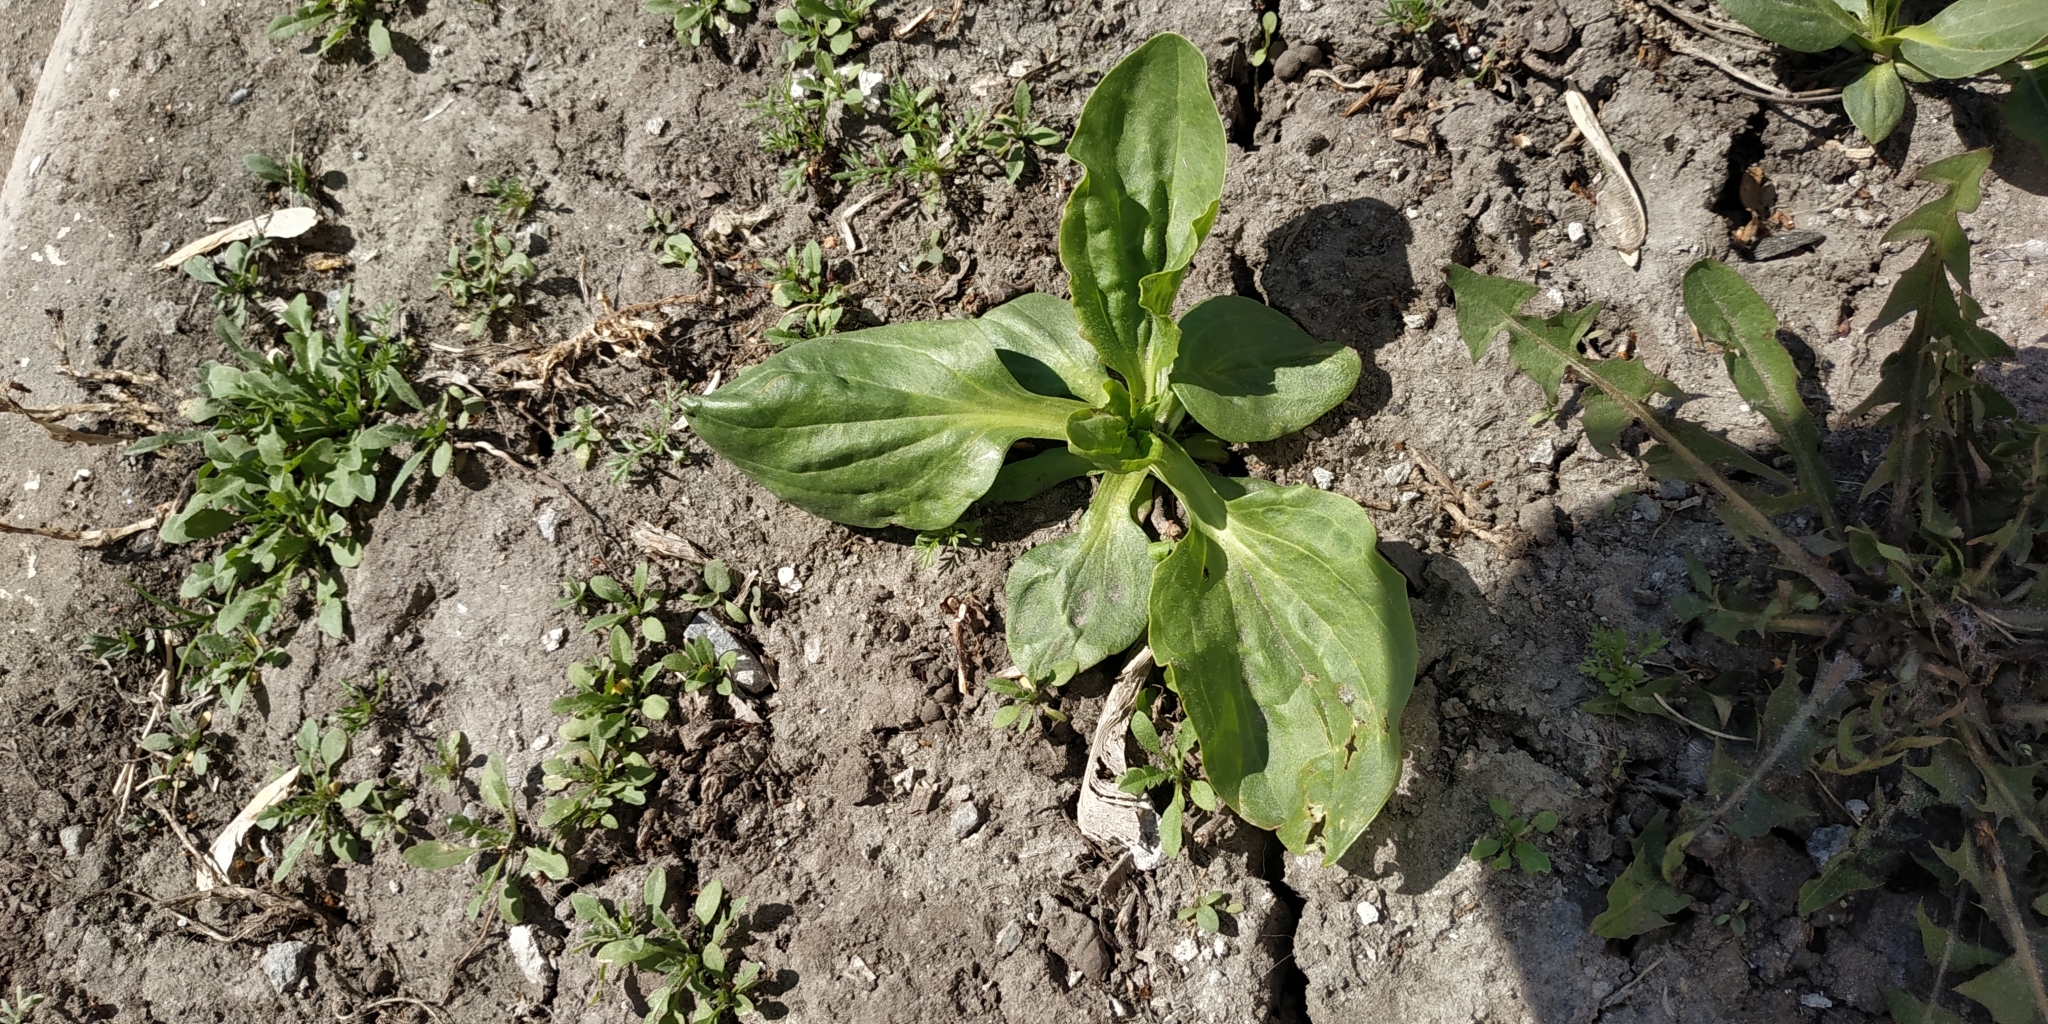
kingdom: Plantae
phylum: Tracheophyta
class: Magnoliopsida
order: Lamiales
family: Plantaginaceae
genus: Plantago
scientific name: Plantago major
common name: Common plantain
